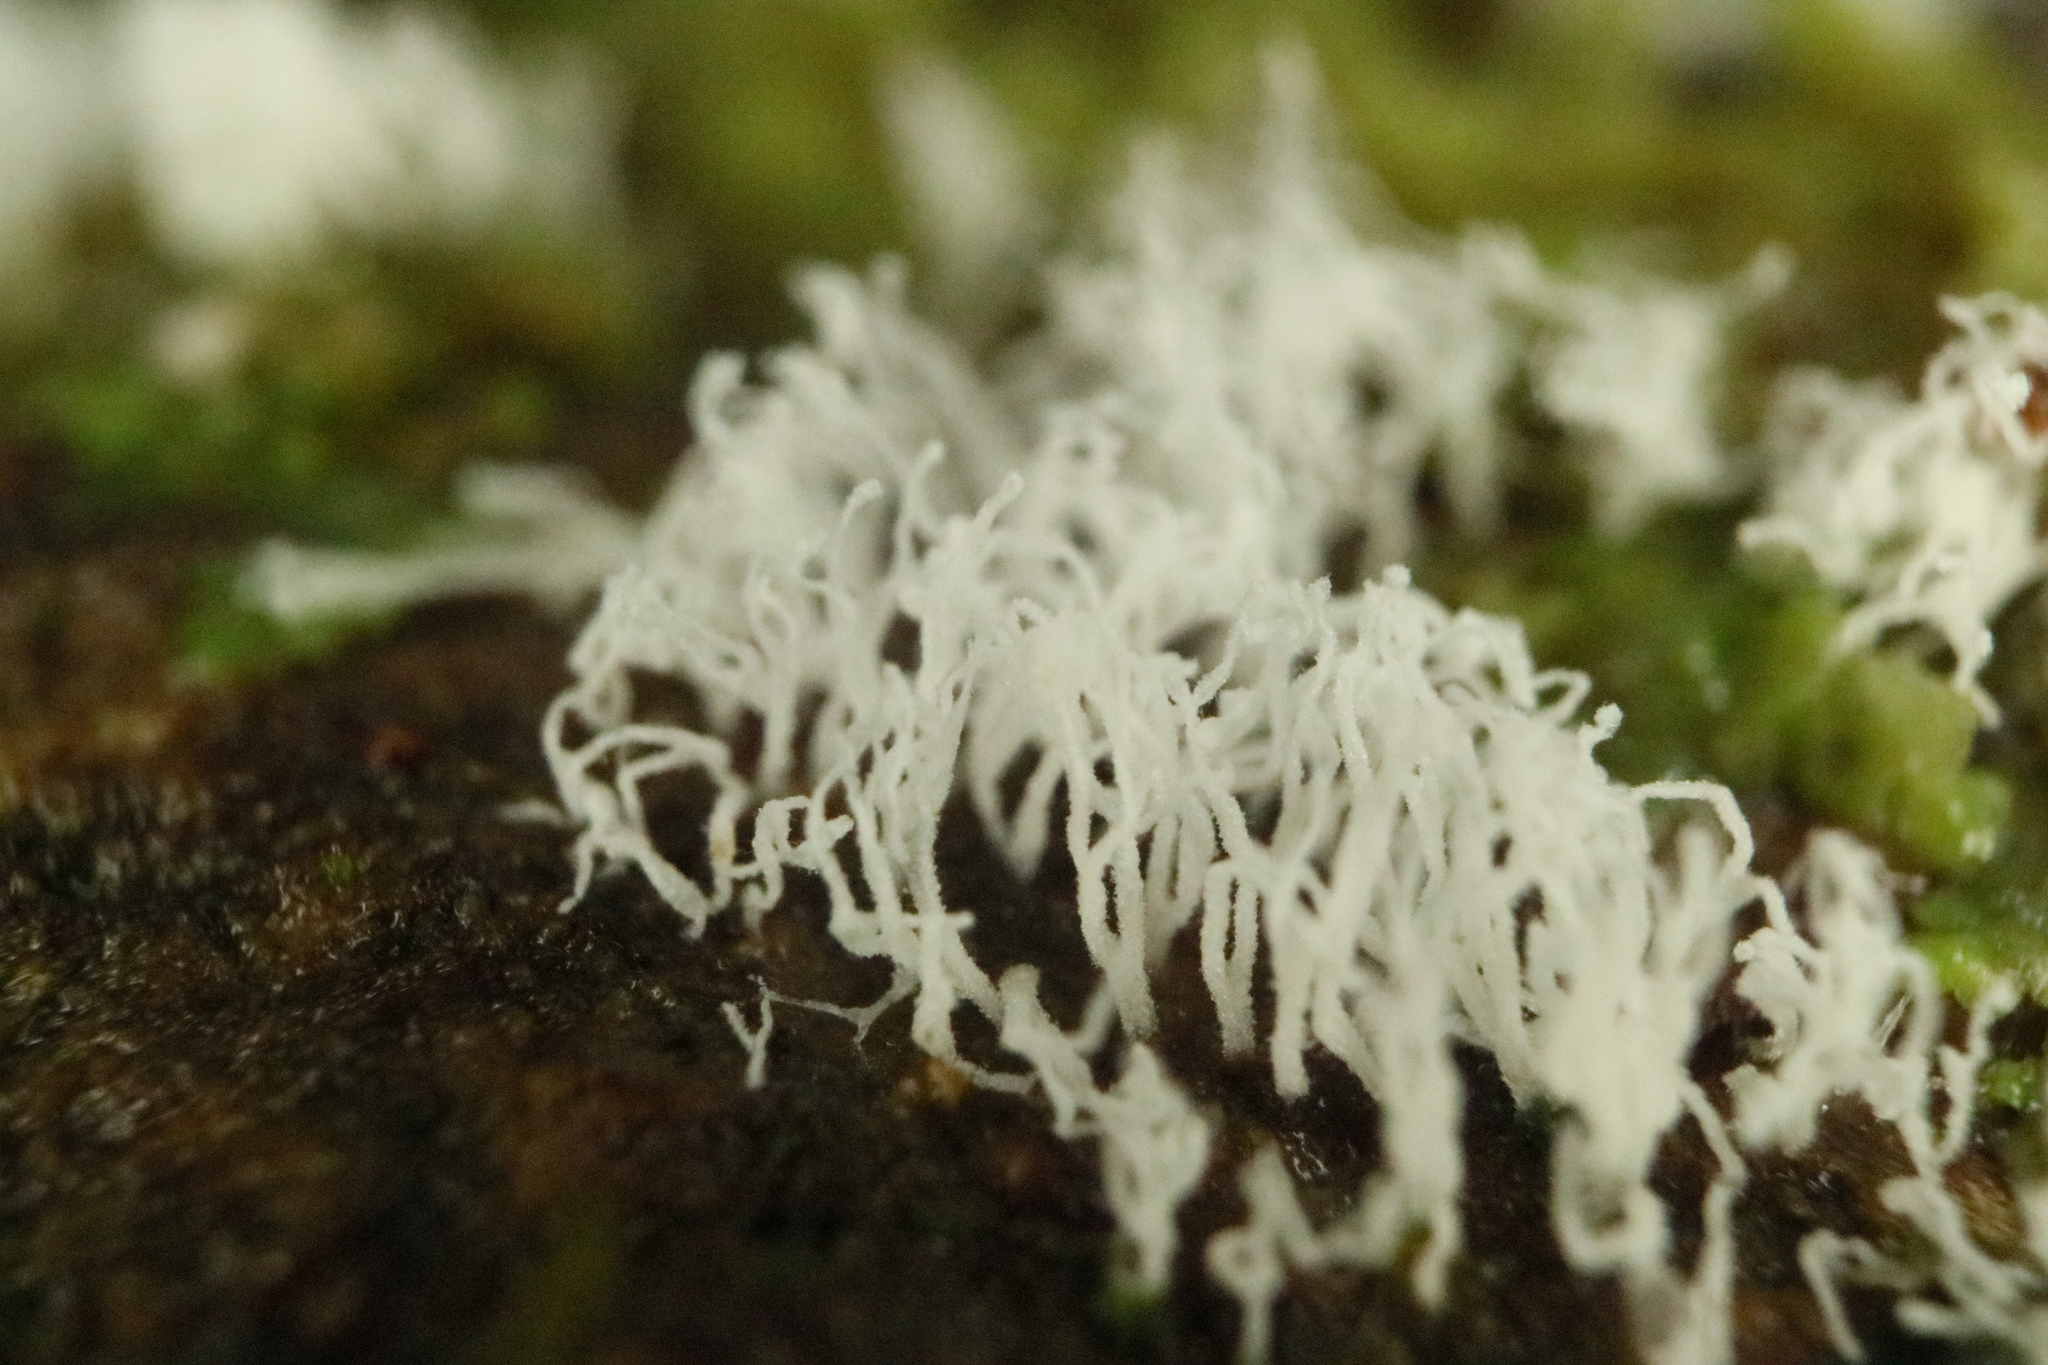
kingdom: Protozoa
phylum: Mycetozoa
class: Protosteliomycetes
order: Ceratiomyxales
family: Ceratiomyxaceae
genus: Ceratiomyxa
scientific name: Ceratiomyxa fruticulosa
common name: Honeycomb coral slime mold
